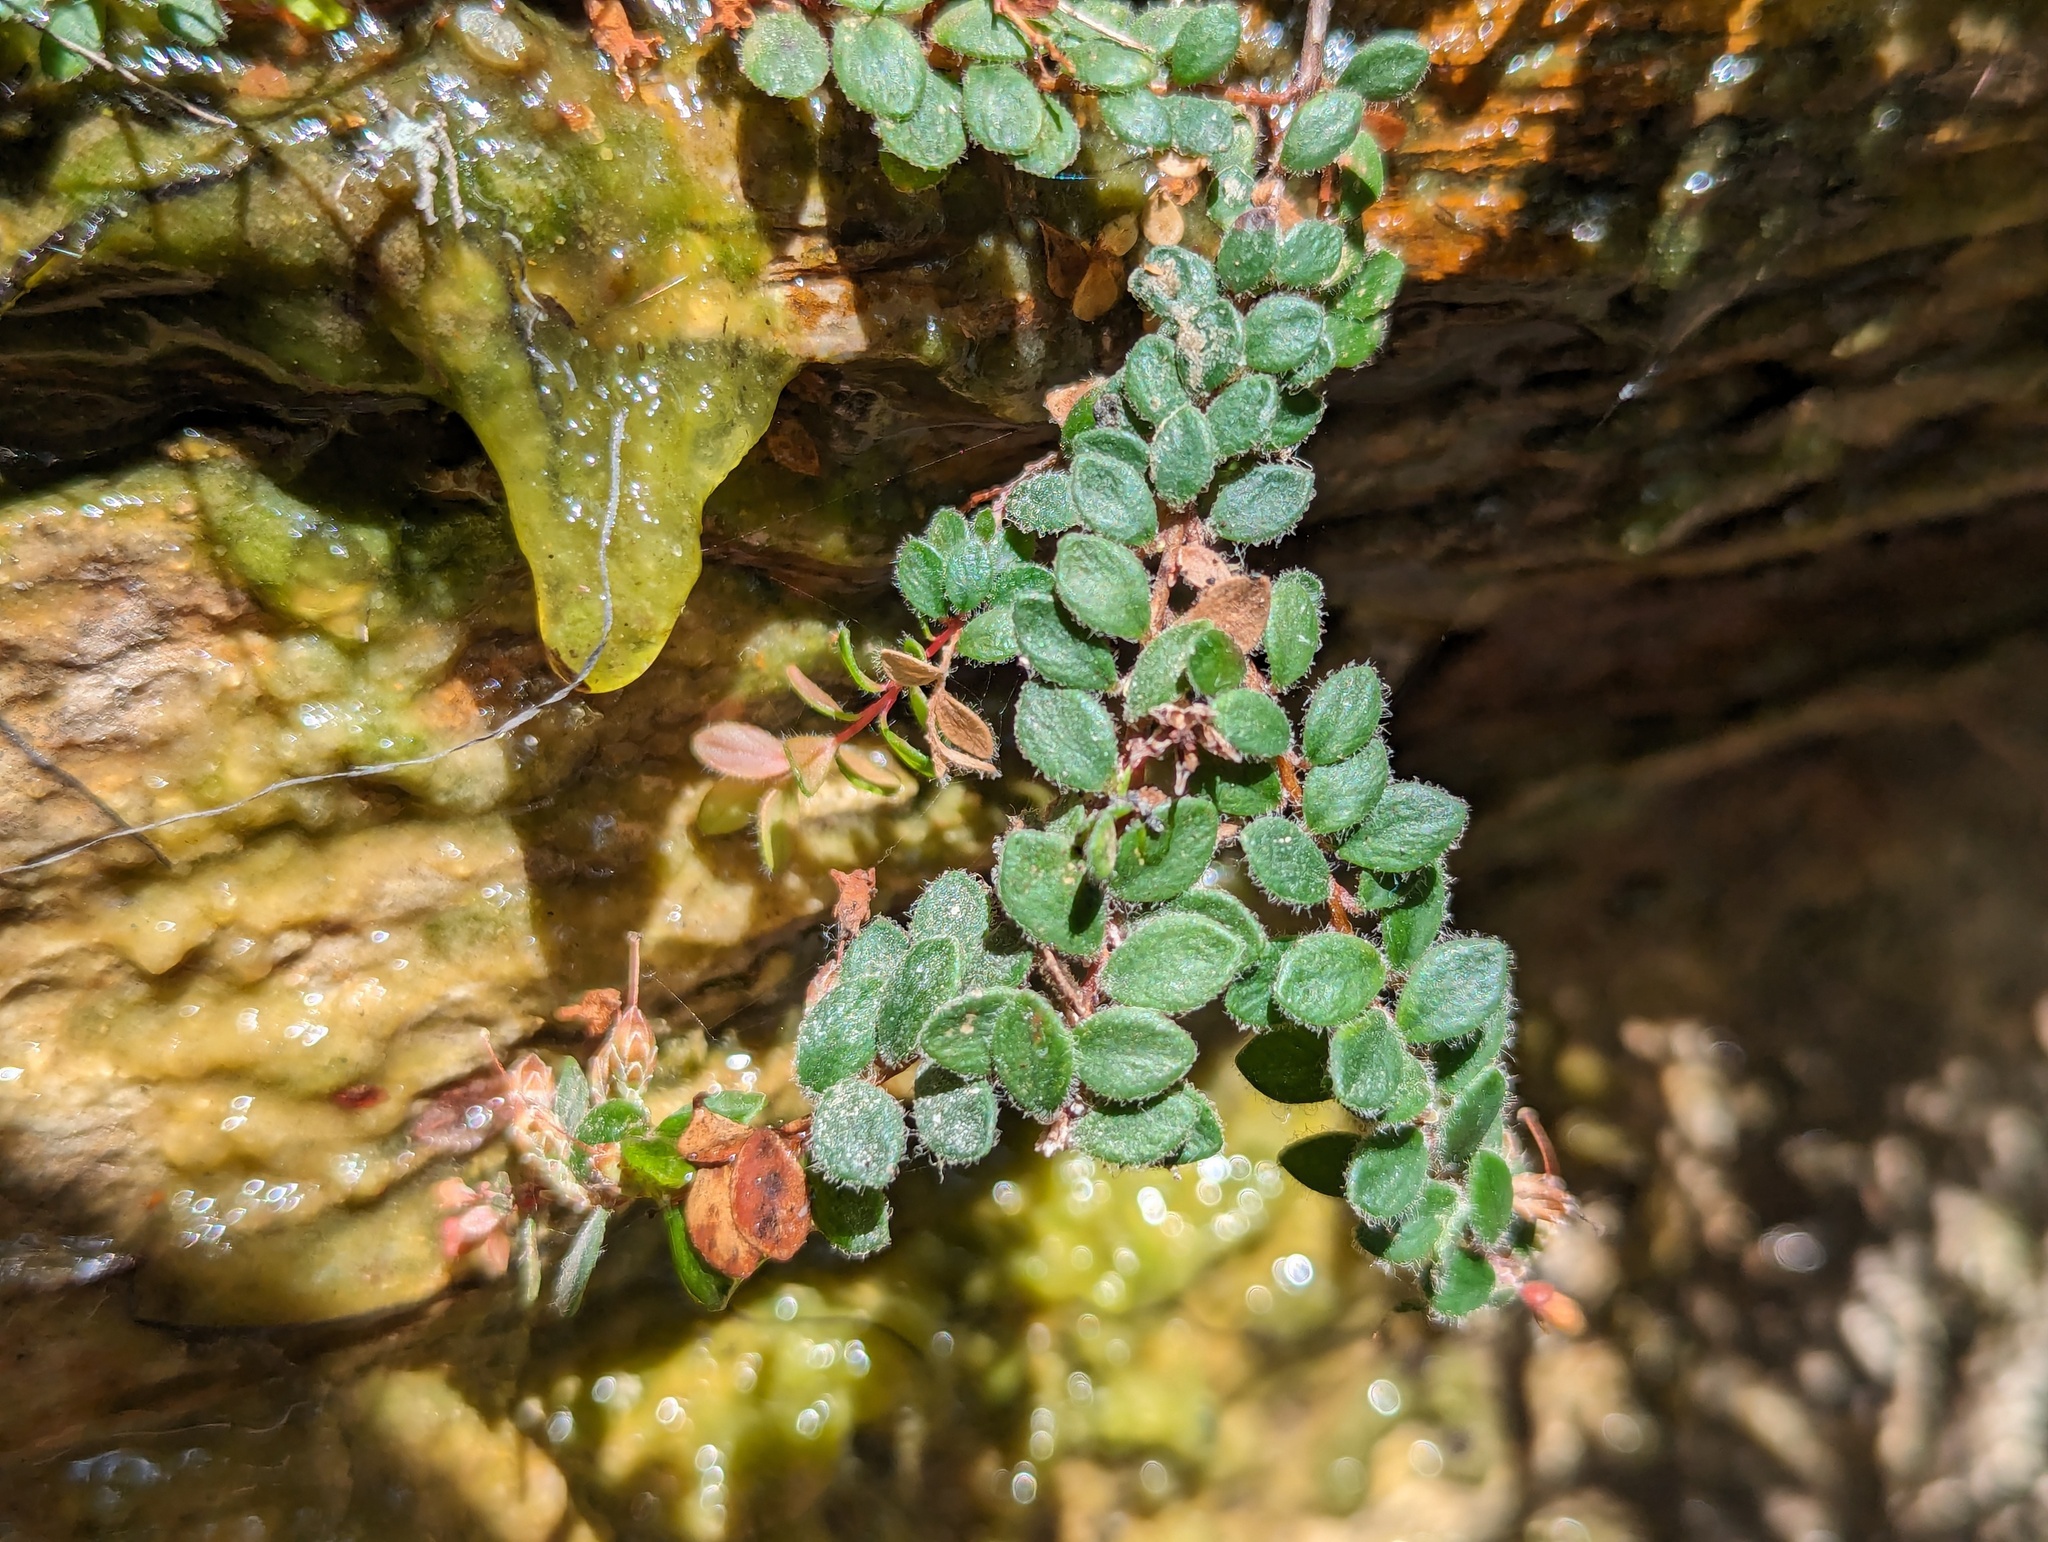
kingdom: Plantae
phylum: Tracheophyta
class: Magnoliopsida
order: Ericales
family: Ericaceae
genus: Epacris
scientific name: Epacris crassifolia
